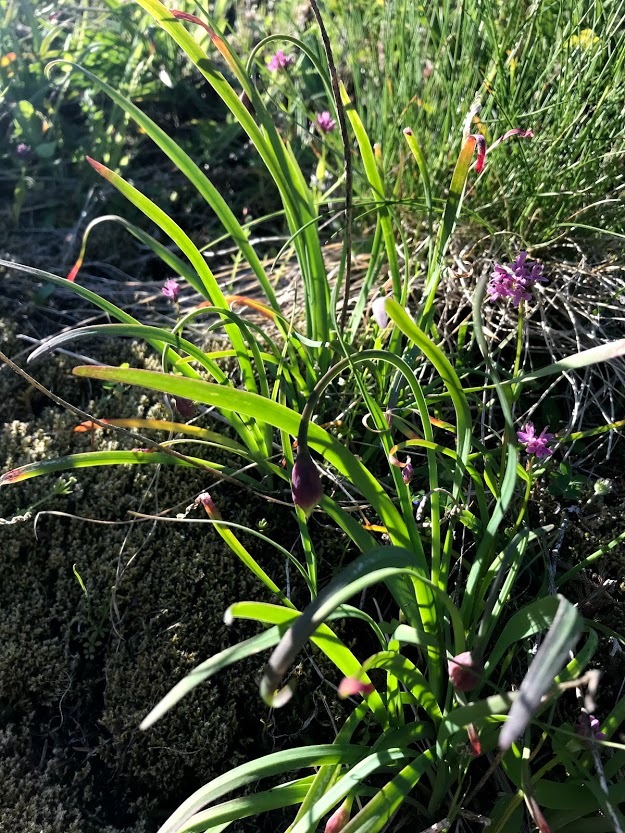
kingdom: Plantae
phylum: Tracheophyta
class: Liliopsida
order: Asparagales
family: Amaryllidaceae
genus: Allium
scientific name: Allium cernuum
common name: Nodding onion
